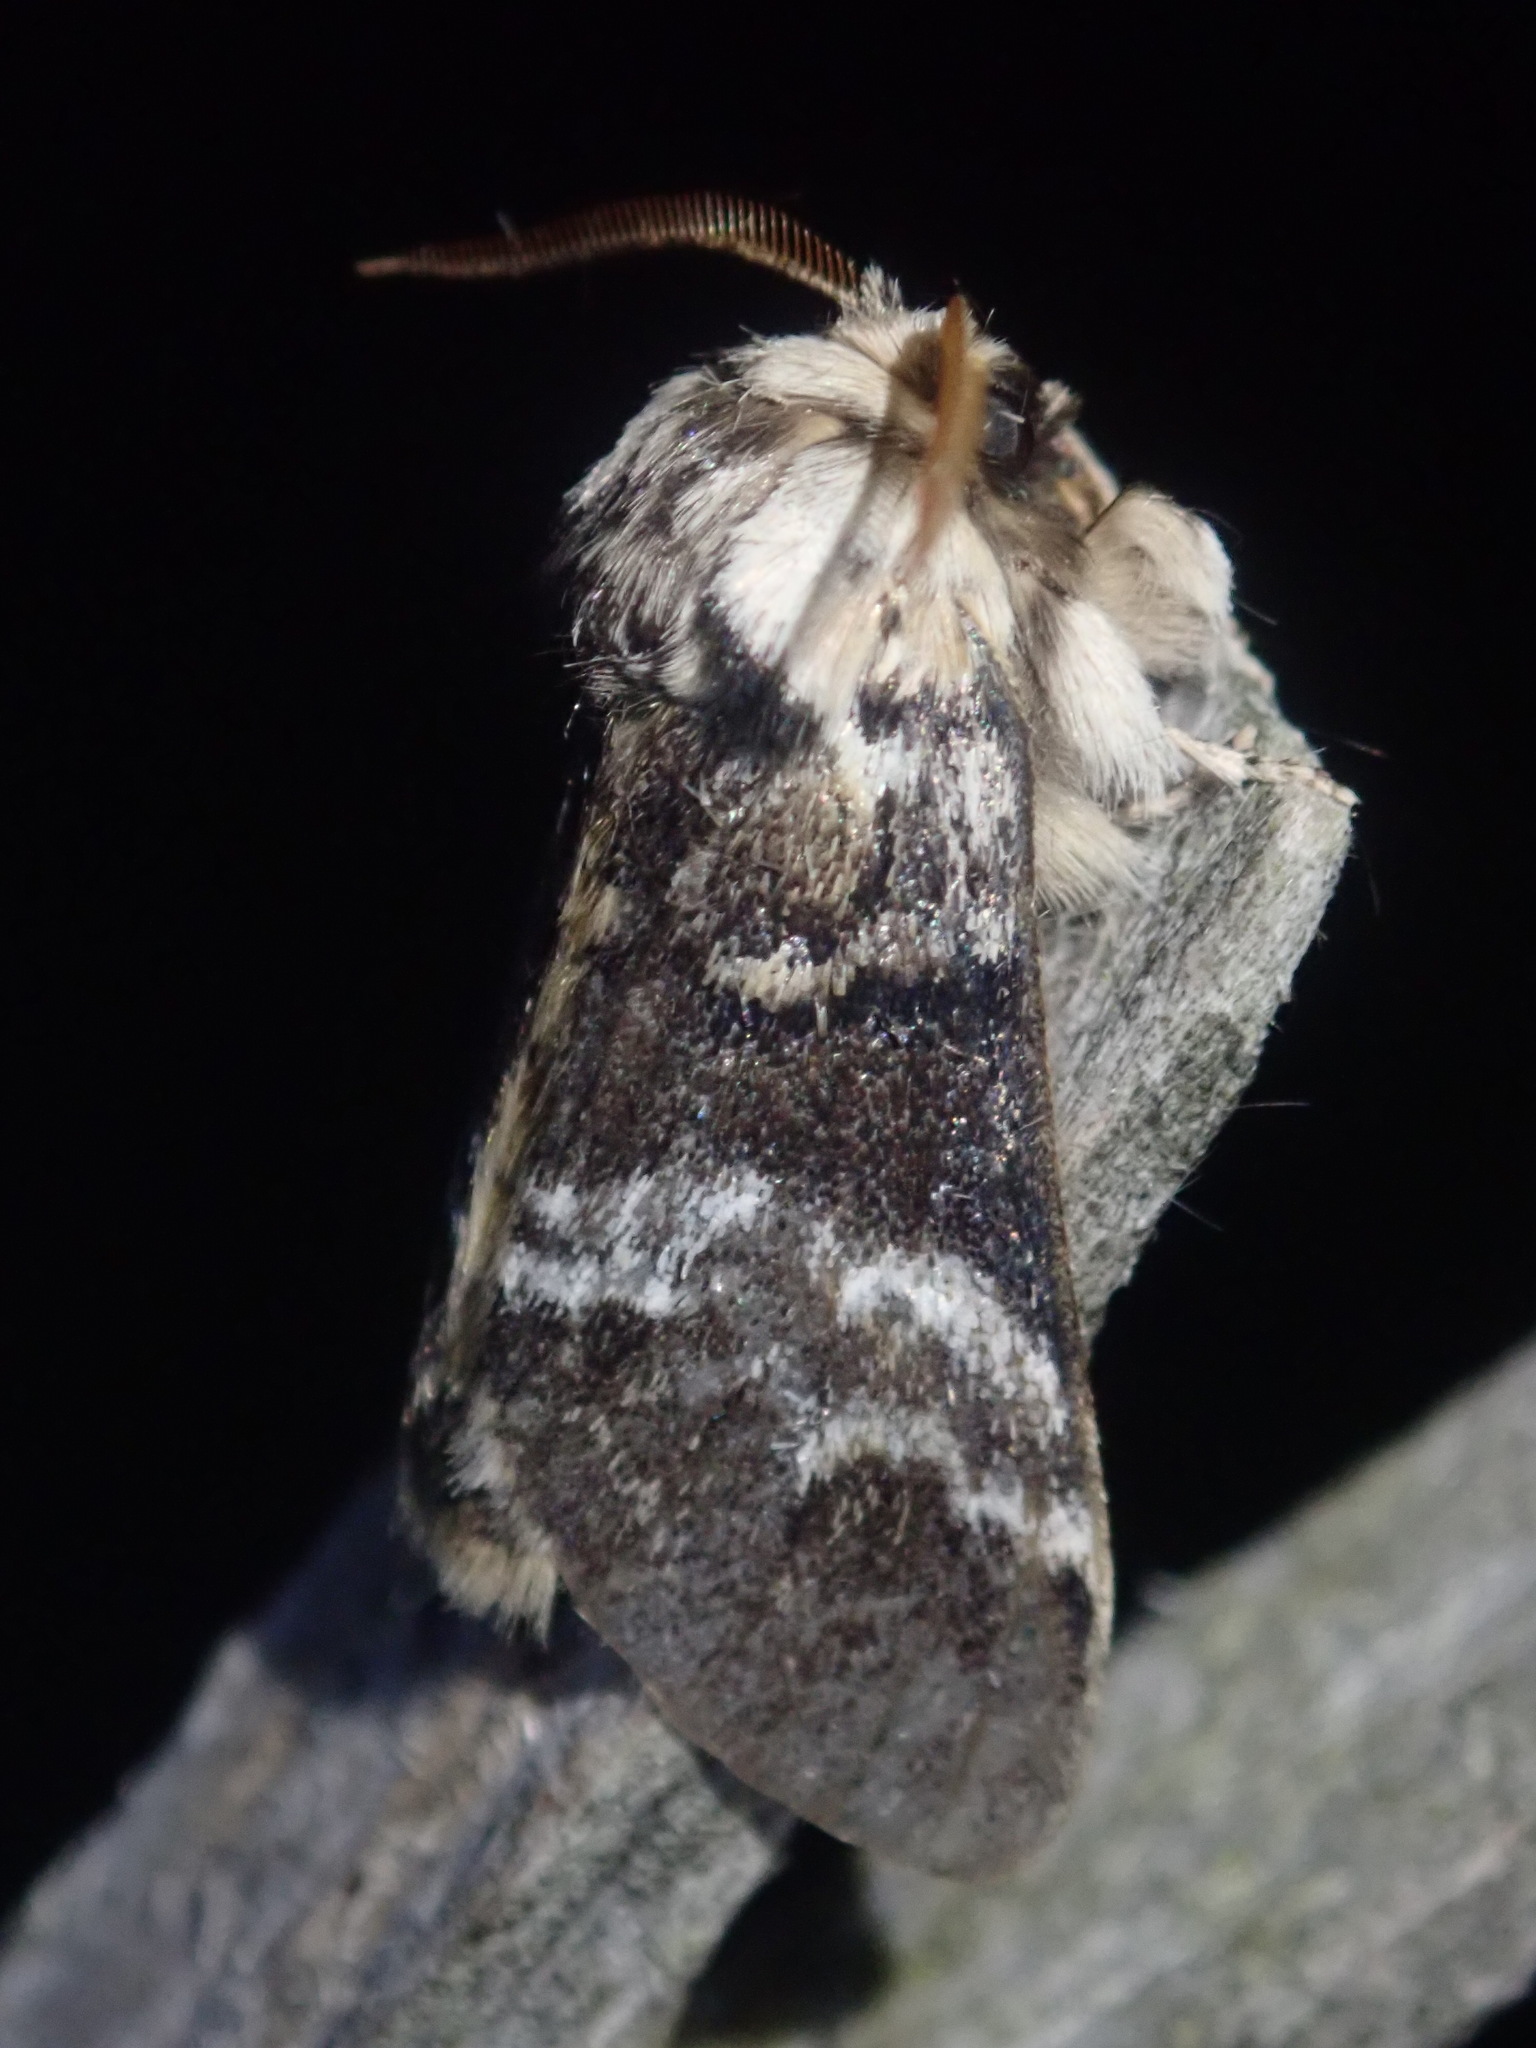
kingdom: Animalia
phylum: Arthropoda
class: Insecta
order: Lepidoptera
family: Notodontidae
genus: Drymonia
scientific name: Drymonia dodonaea
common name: Marbled brown
